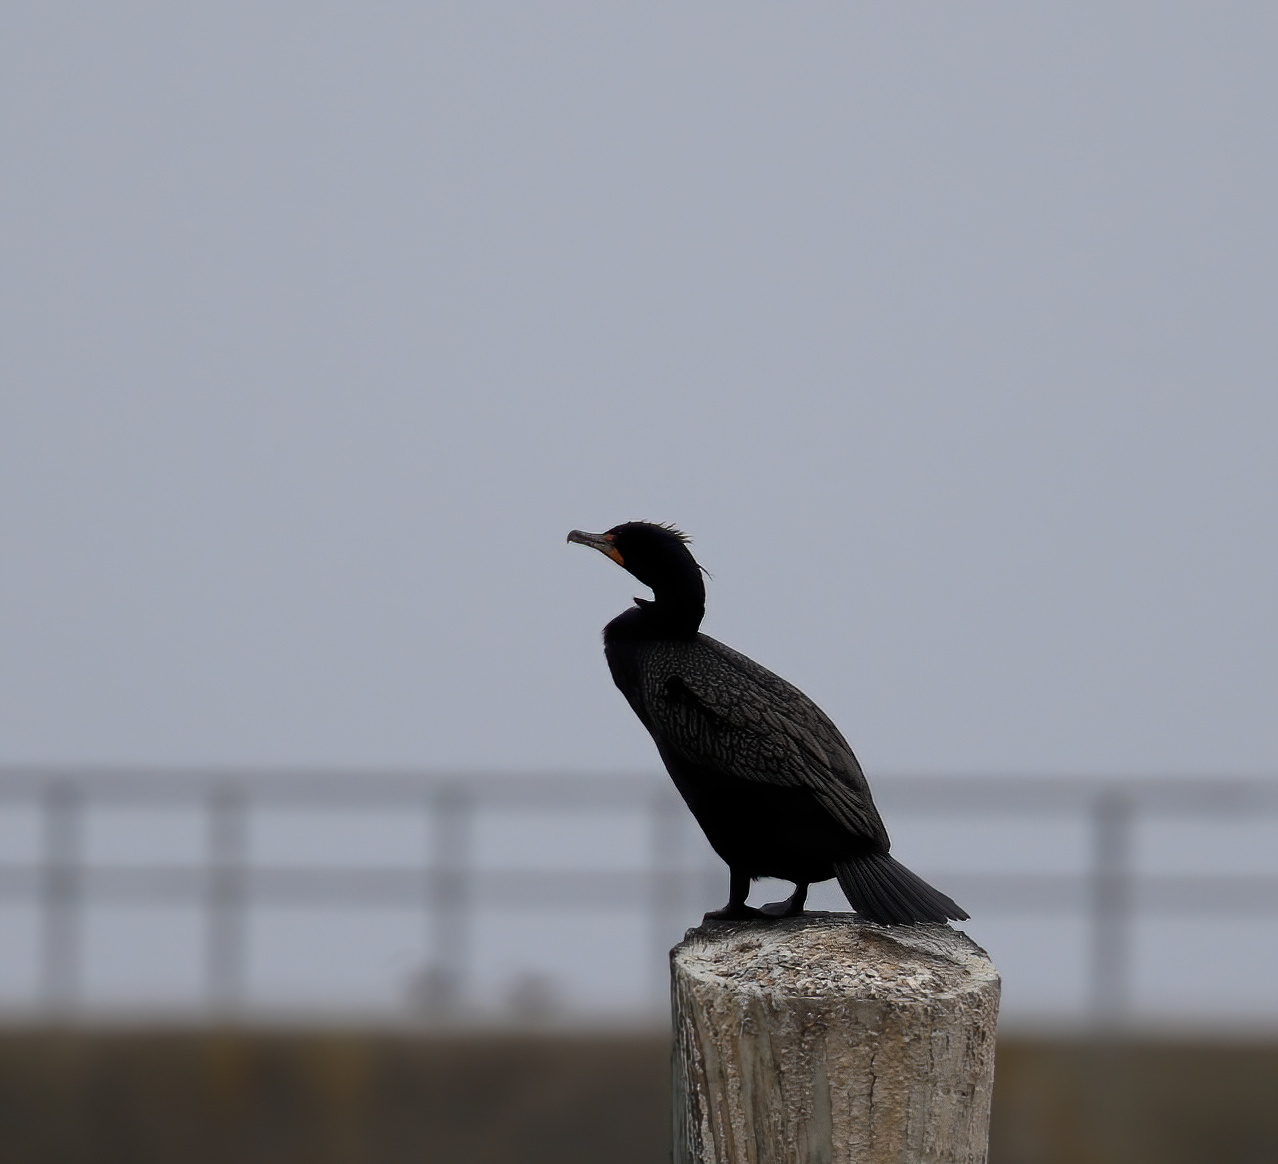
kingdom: Animalia
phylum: Chordata
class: Aves
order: Suliformes
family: Phalacrocoracidae
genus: Phalacrocorax
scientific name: Phalacrocorax auritus
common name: Double-crested cormorant
